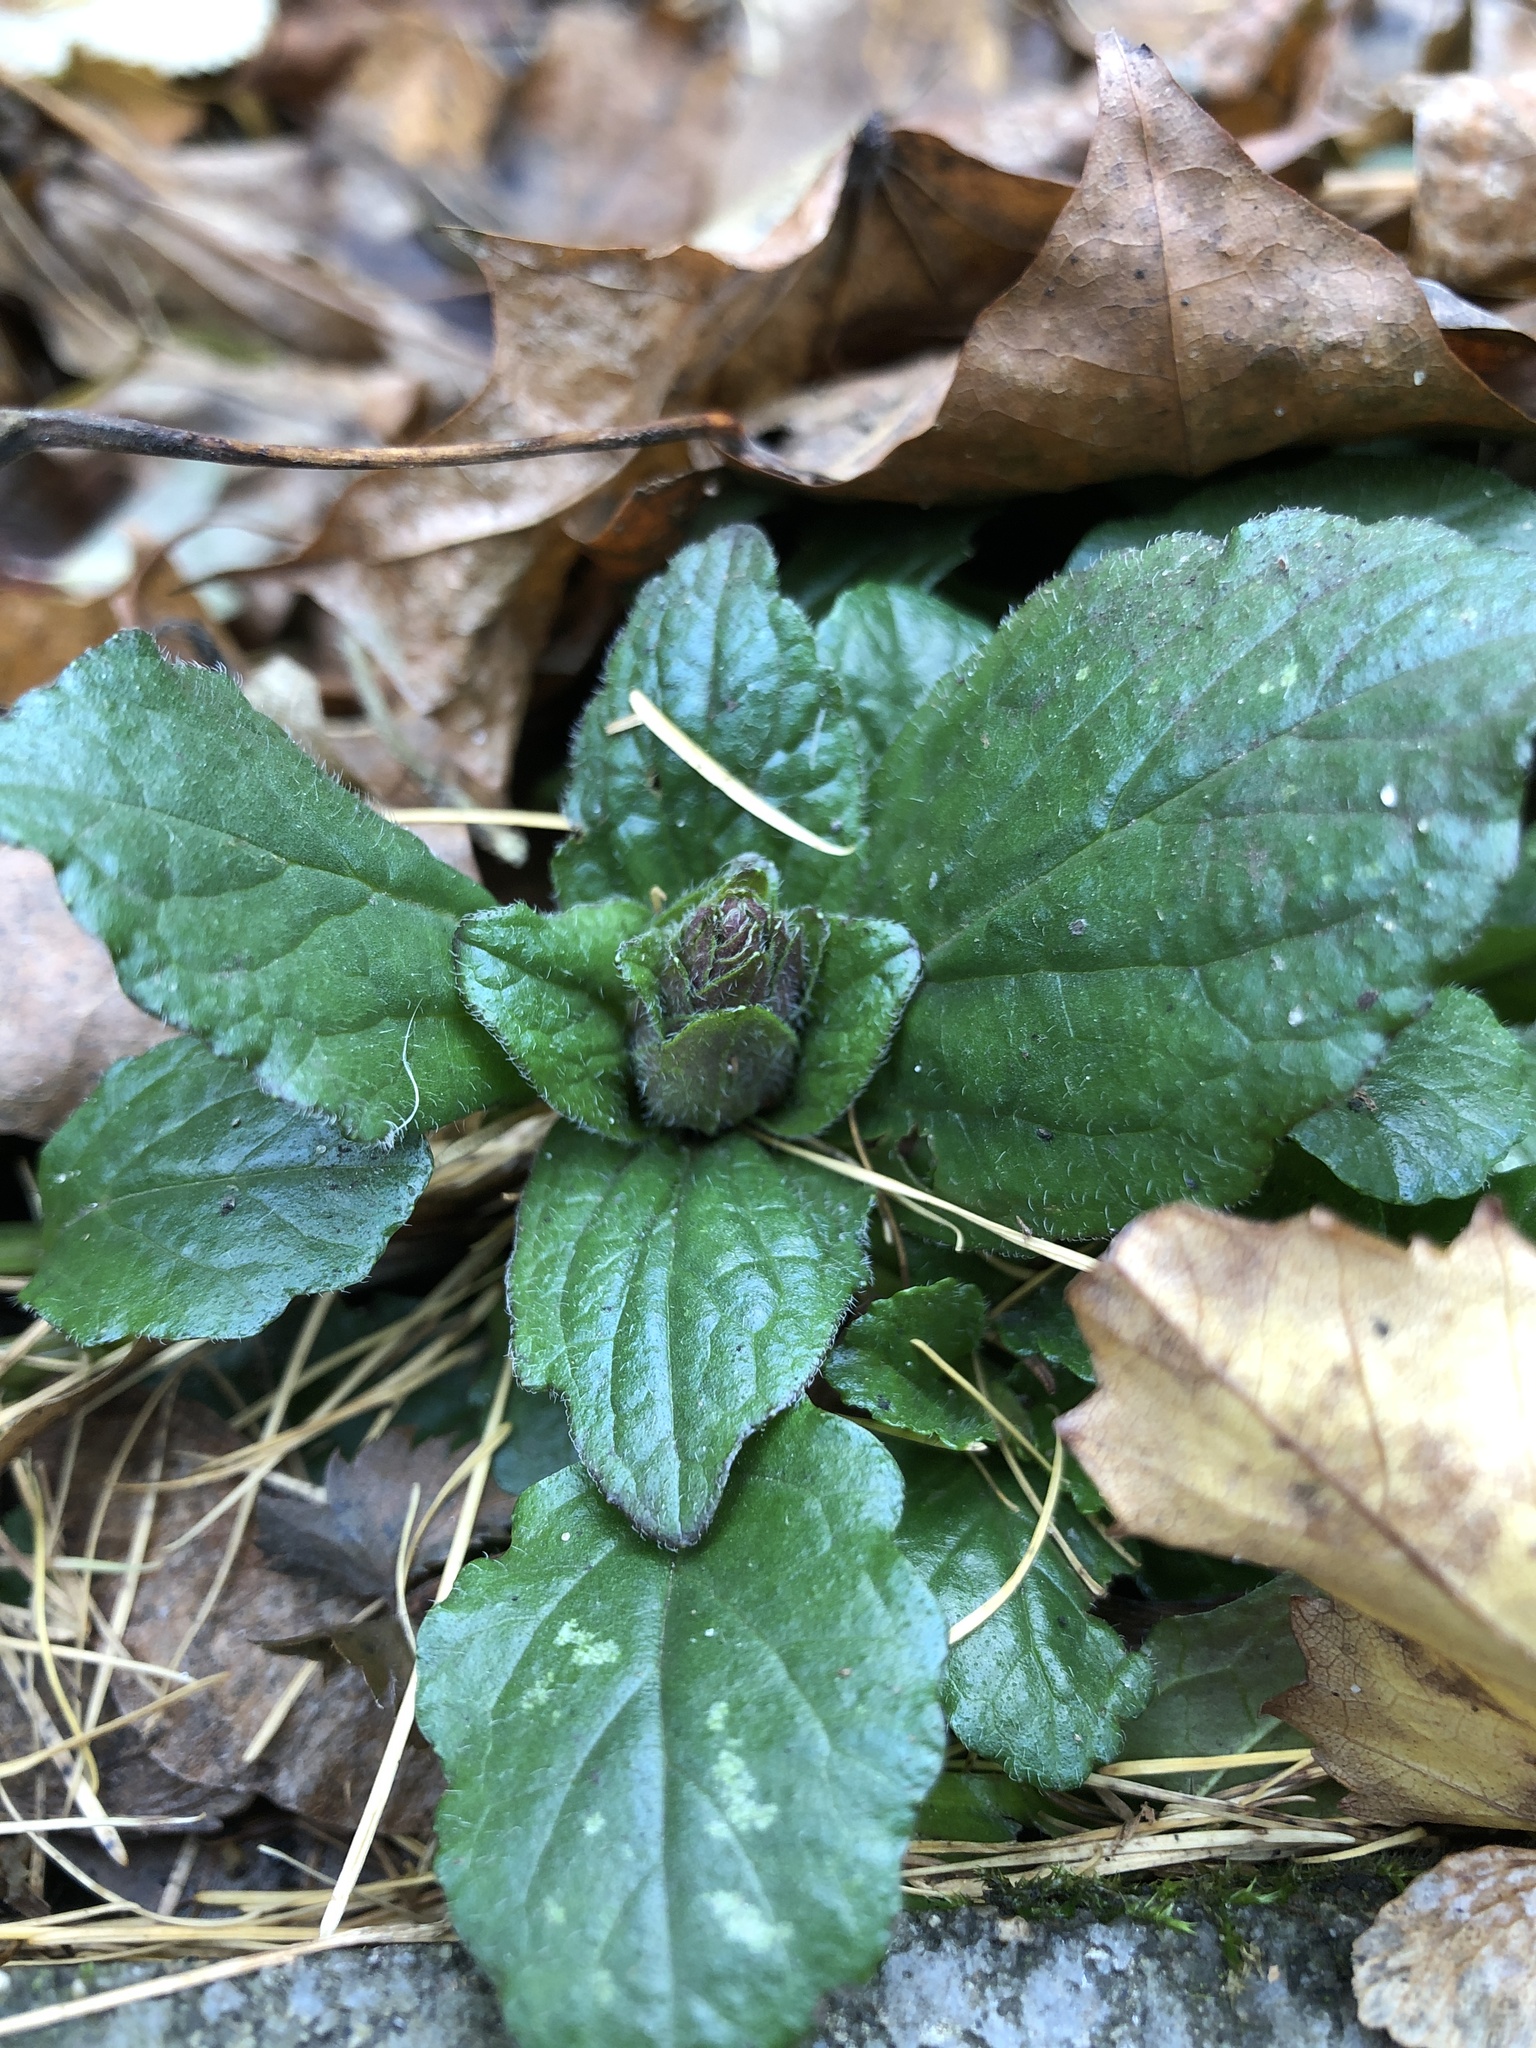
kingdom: Plantae
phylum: Tracheophyta
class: Magnoliopsida
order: Lamiales
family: Lamiaceae
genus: Ajuga
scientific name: Ajuga reptans
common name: Bugle
